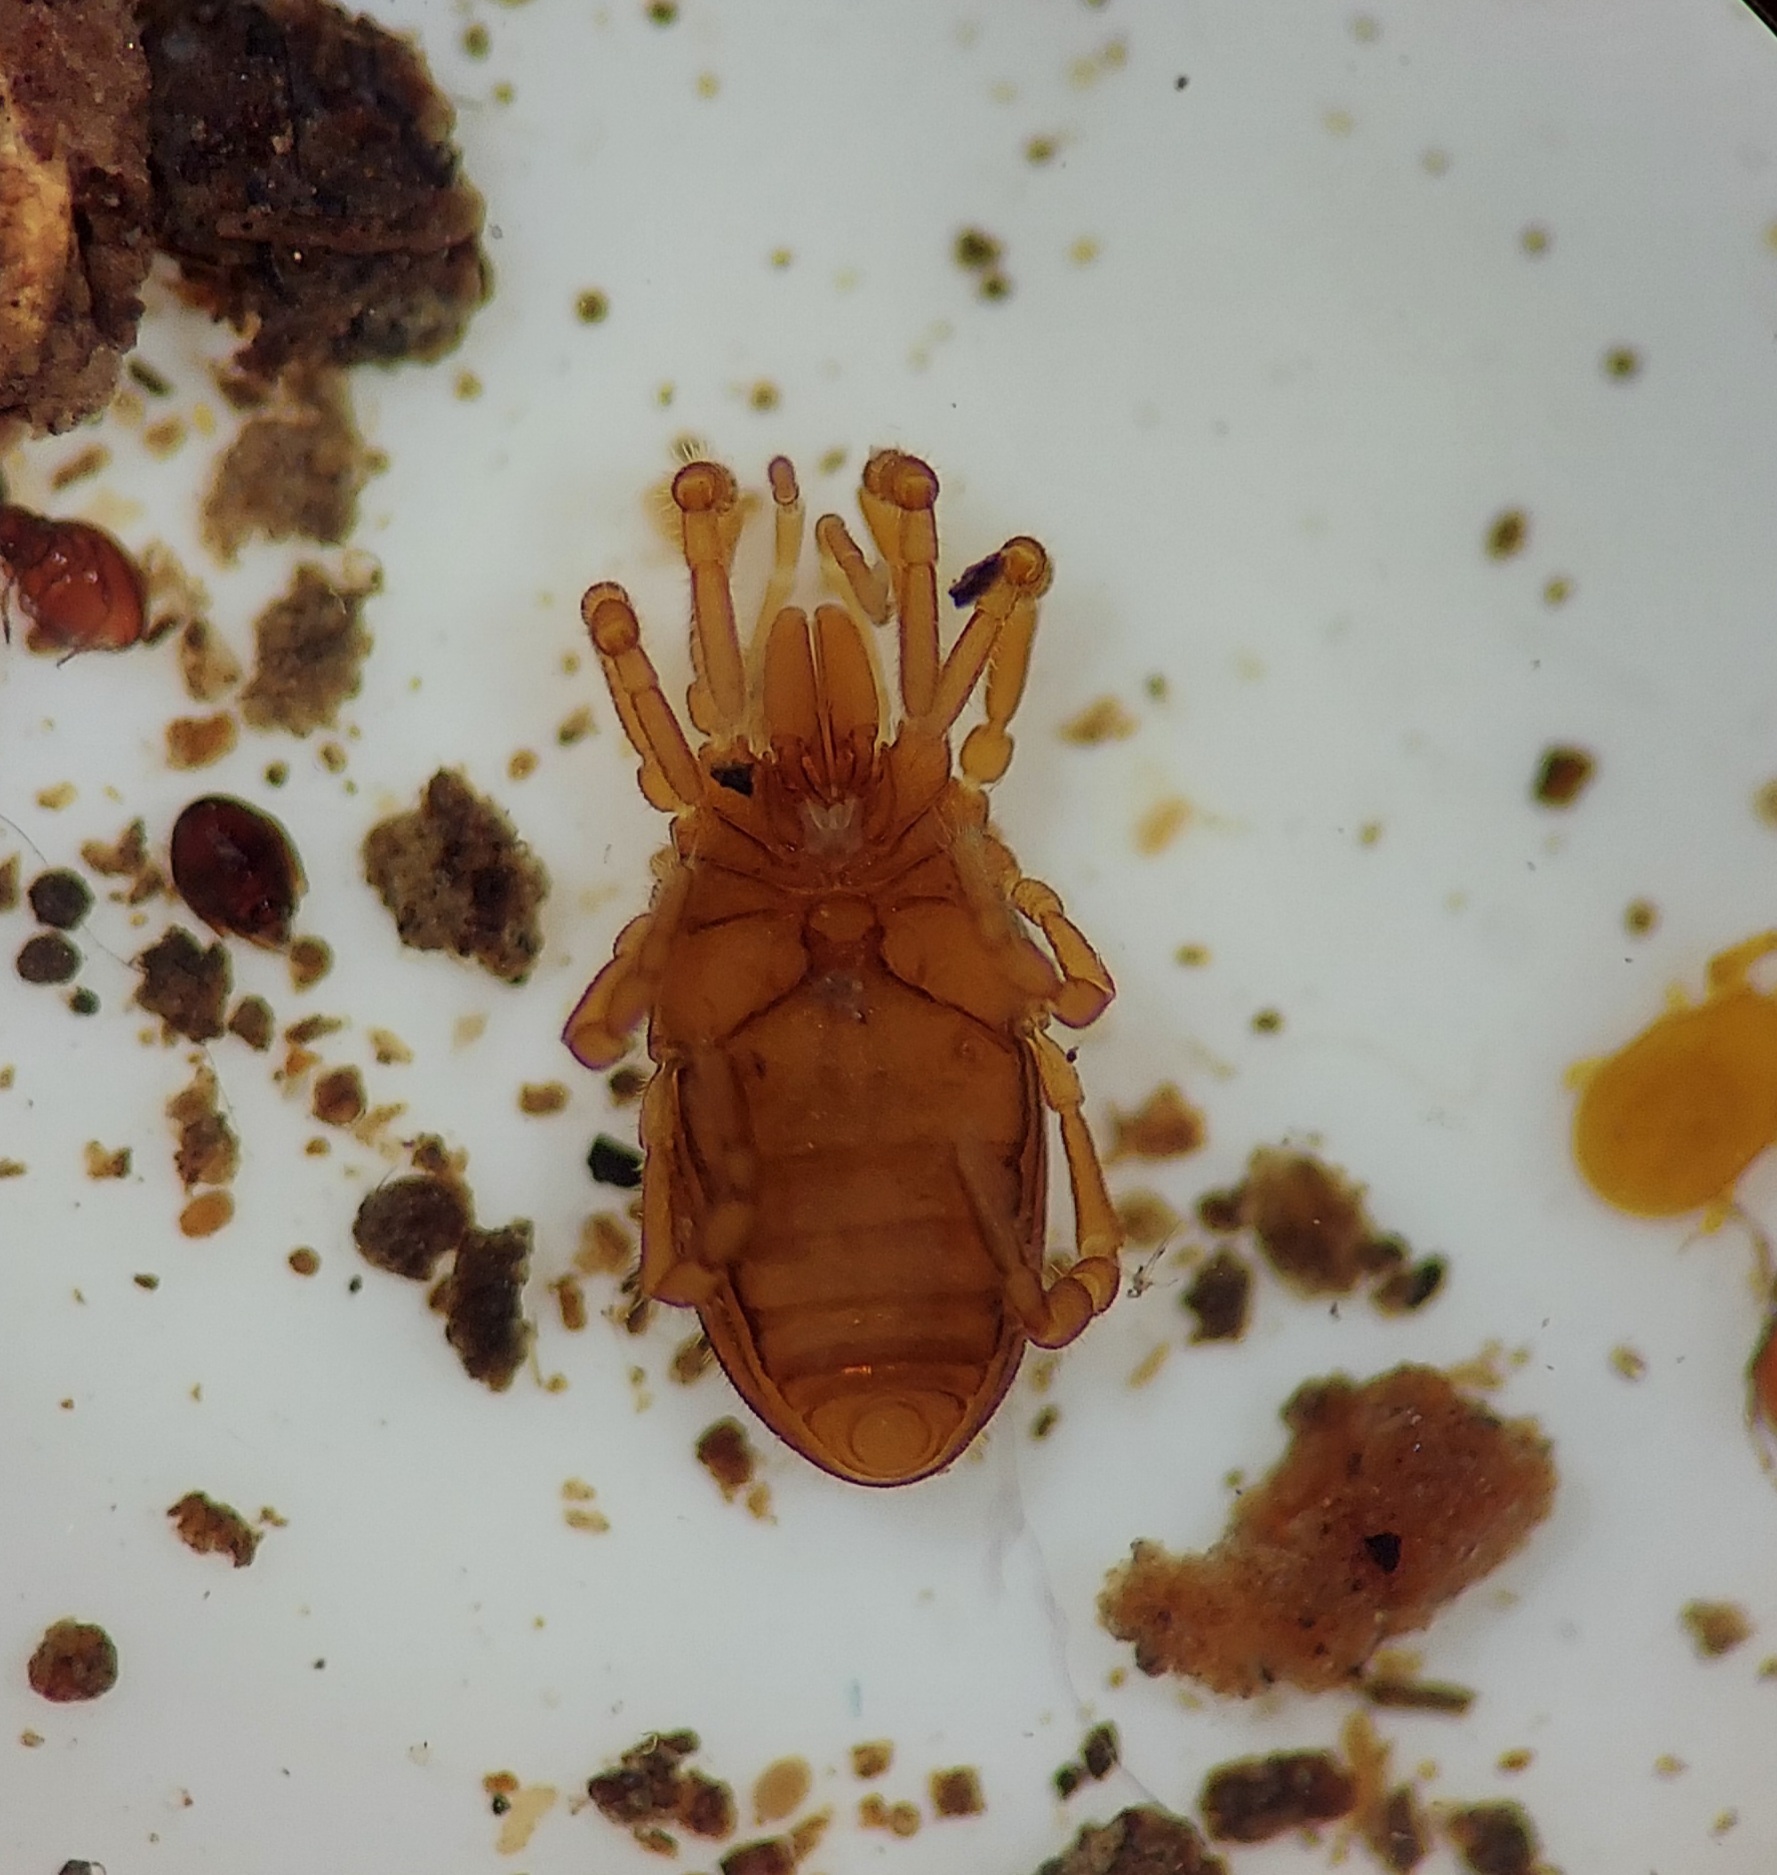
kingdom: Animalia
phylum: Arthropoda
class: Arachnida
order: Opiliones
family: Sironidae
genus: Neosiro
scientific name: Neosiro exilis
